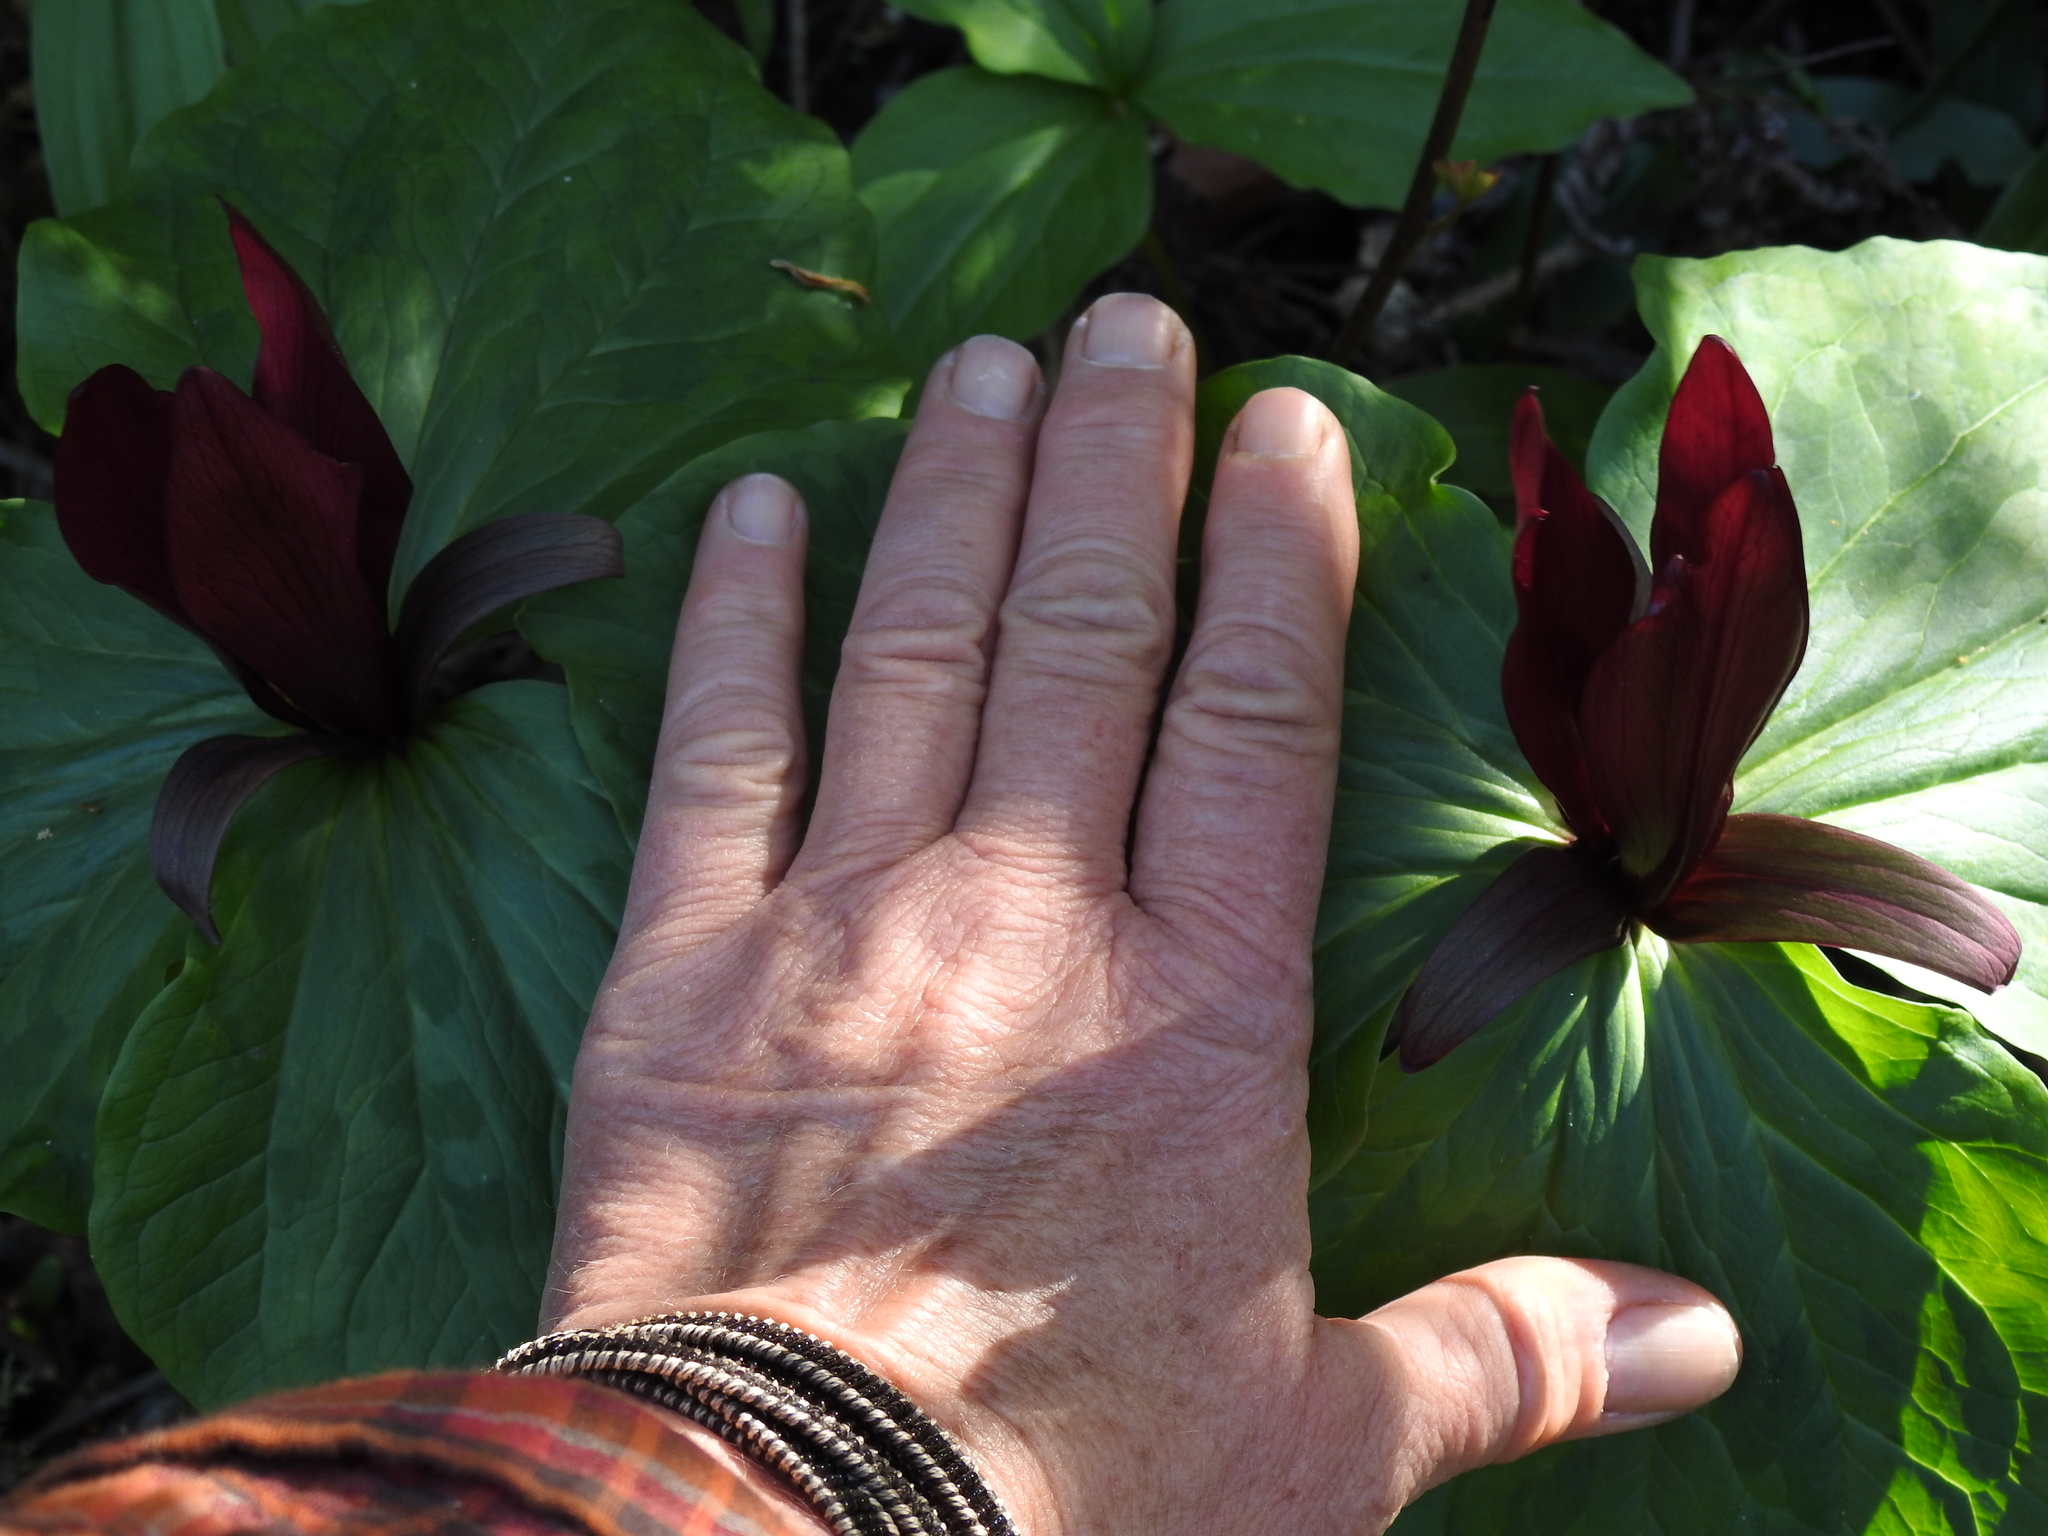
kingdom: Plantae
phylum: Tracheophyta
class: Liliopsida
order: Liliales
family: Melanthiaceae
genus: Trillium
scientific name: Trillium chloropetalum
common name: Giant trillium
